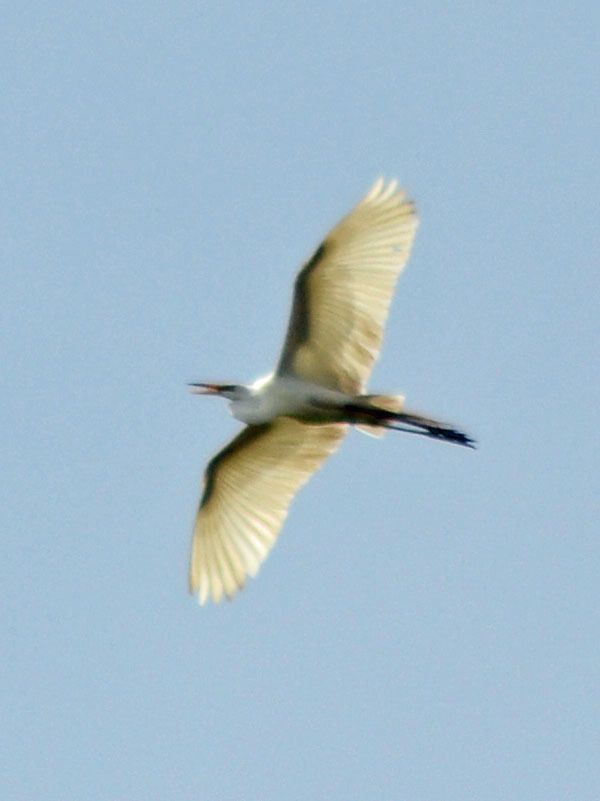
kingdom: Animalia
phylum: Chordata
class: Aves
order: Pelecaniformes
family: Ardeidae
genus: Ardea
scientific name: Ardea alba
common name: Great egret
